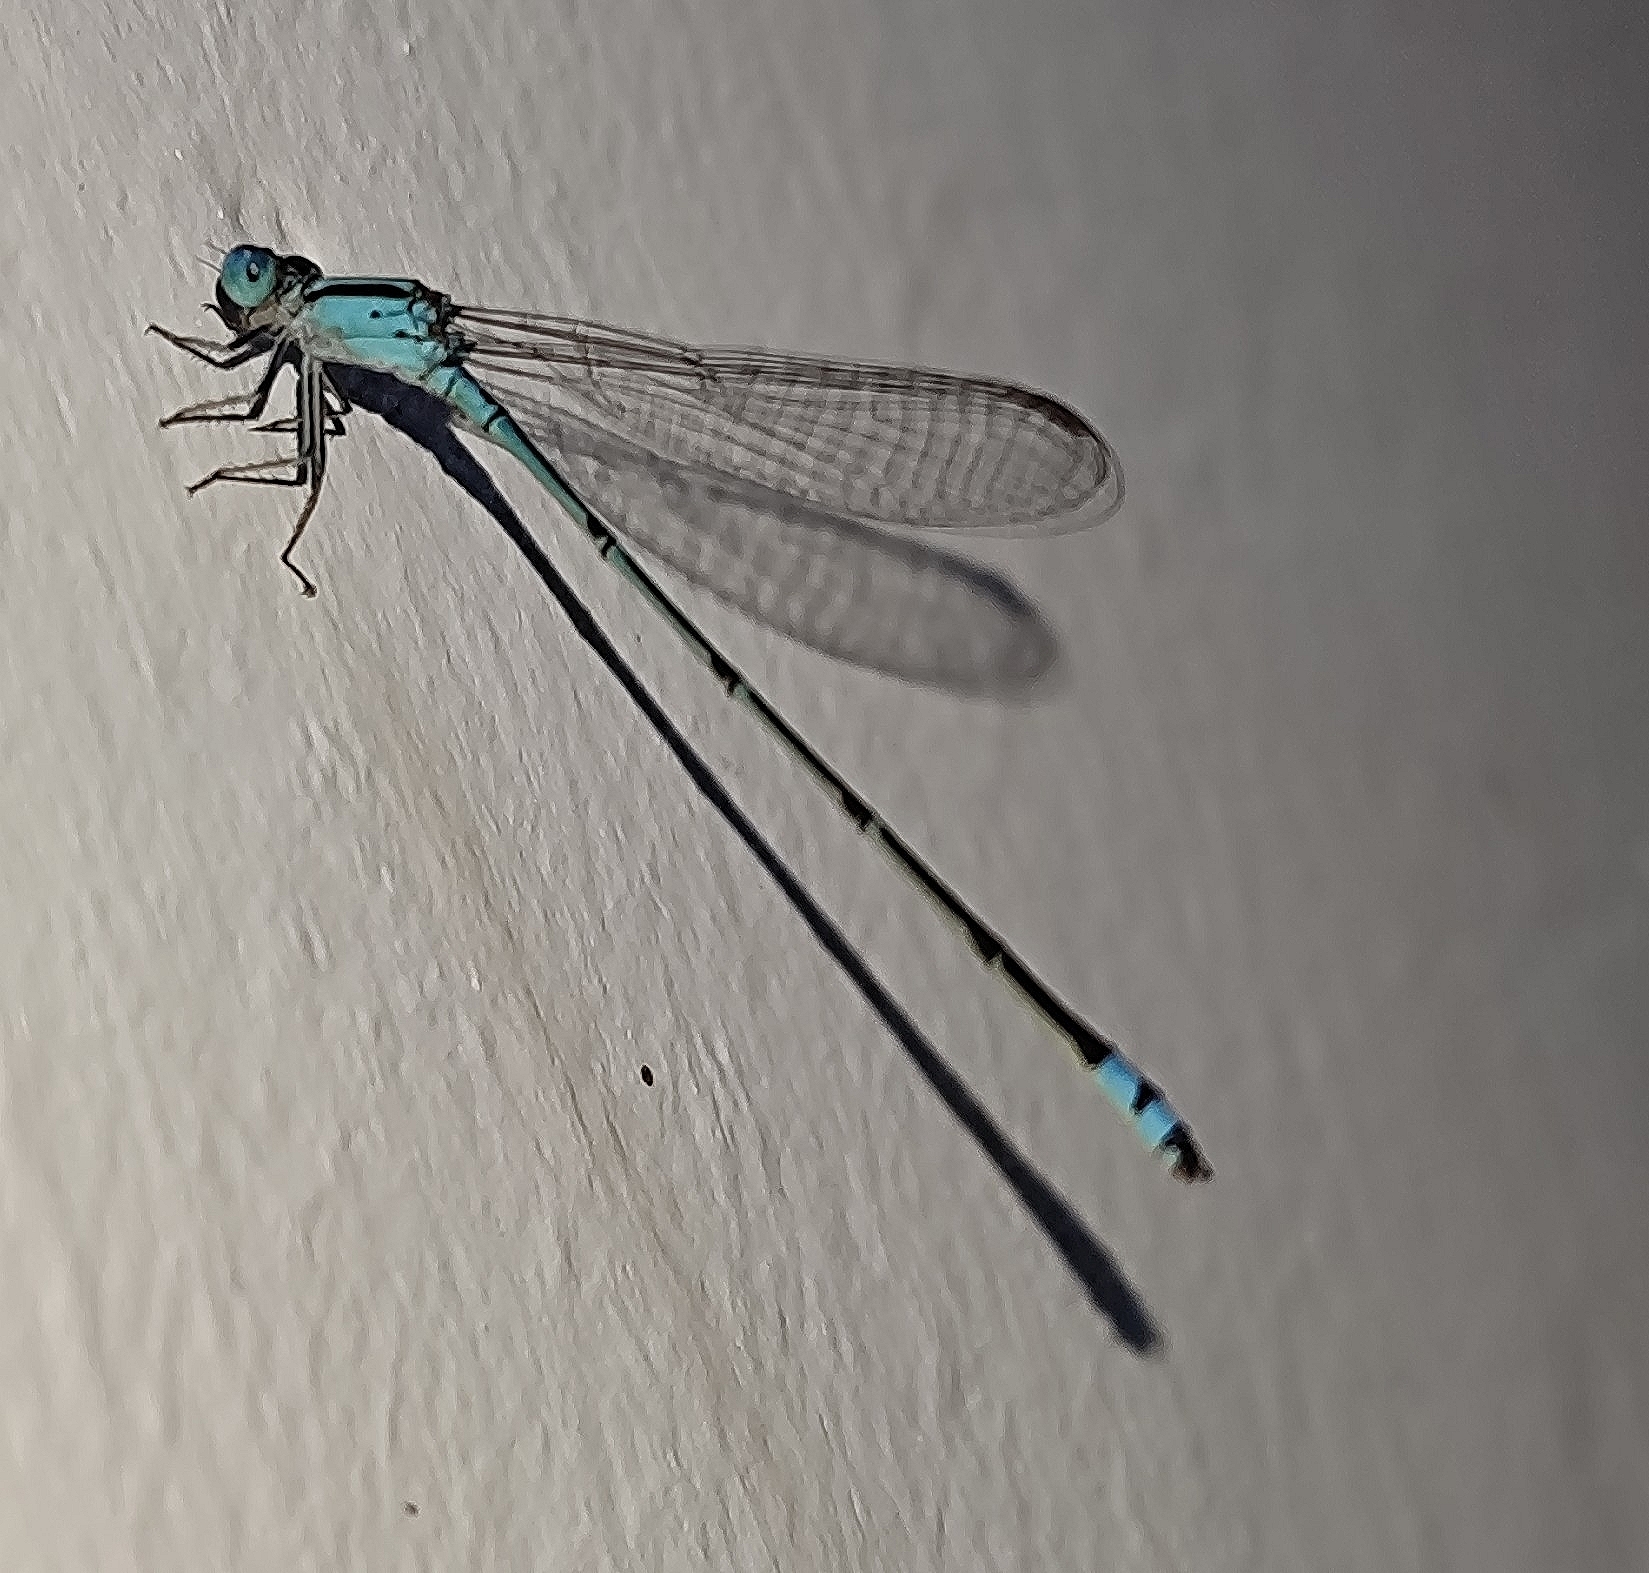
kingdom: Animalia
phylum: Arthropoda
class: Insecta
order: Odonata
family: Coenagrionidae
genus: Pseudagrion
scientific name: Pseudagrion microcephalum
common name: Blue riverdamsel
